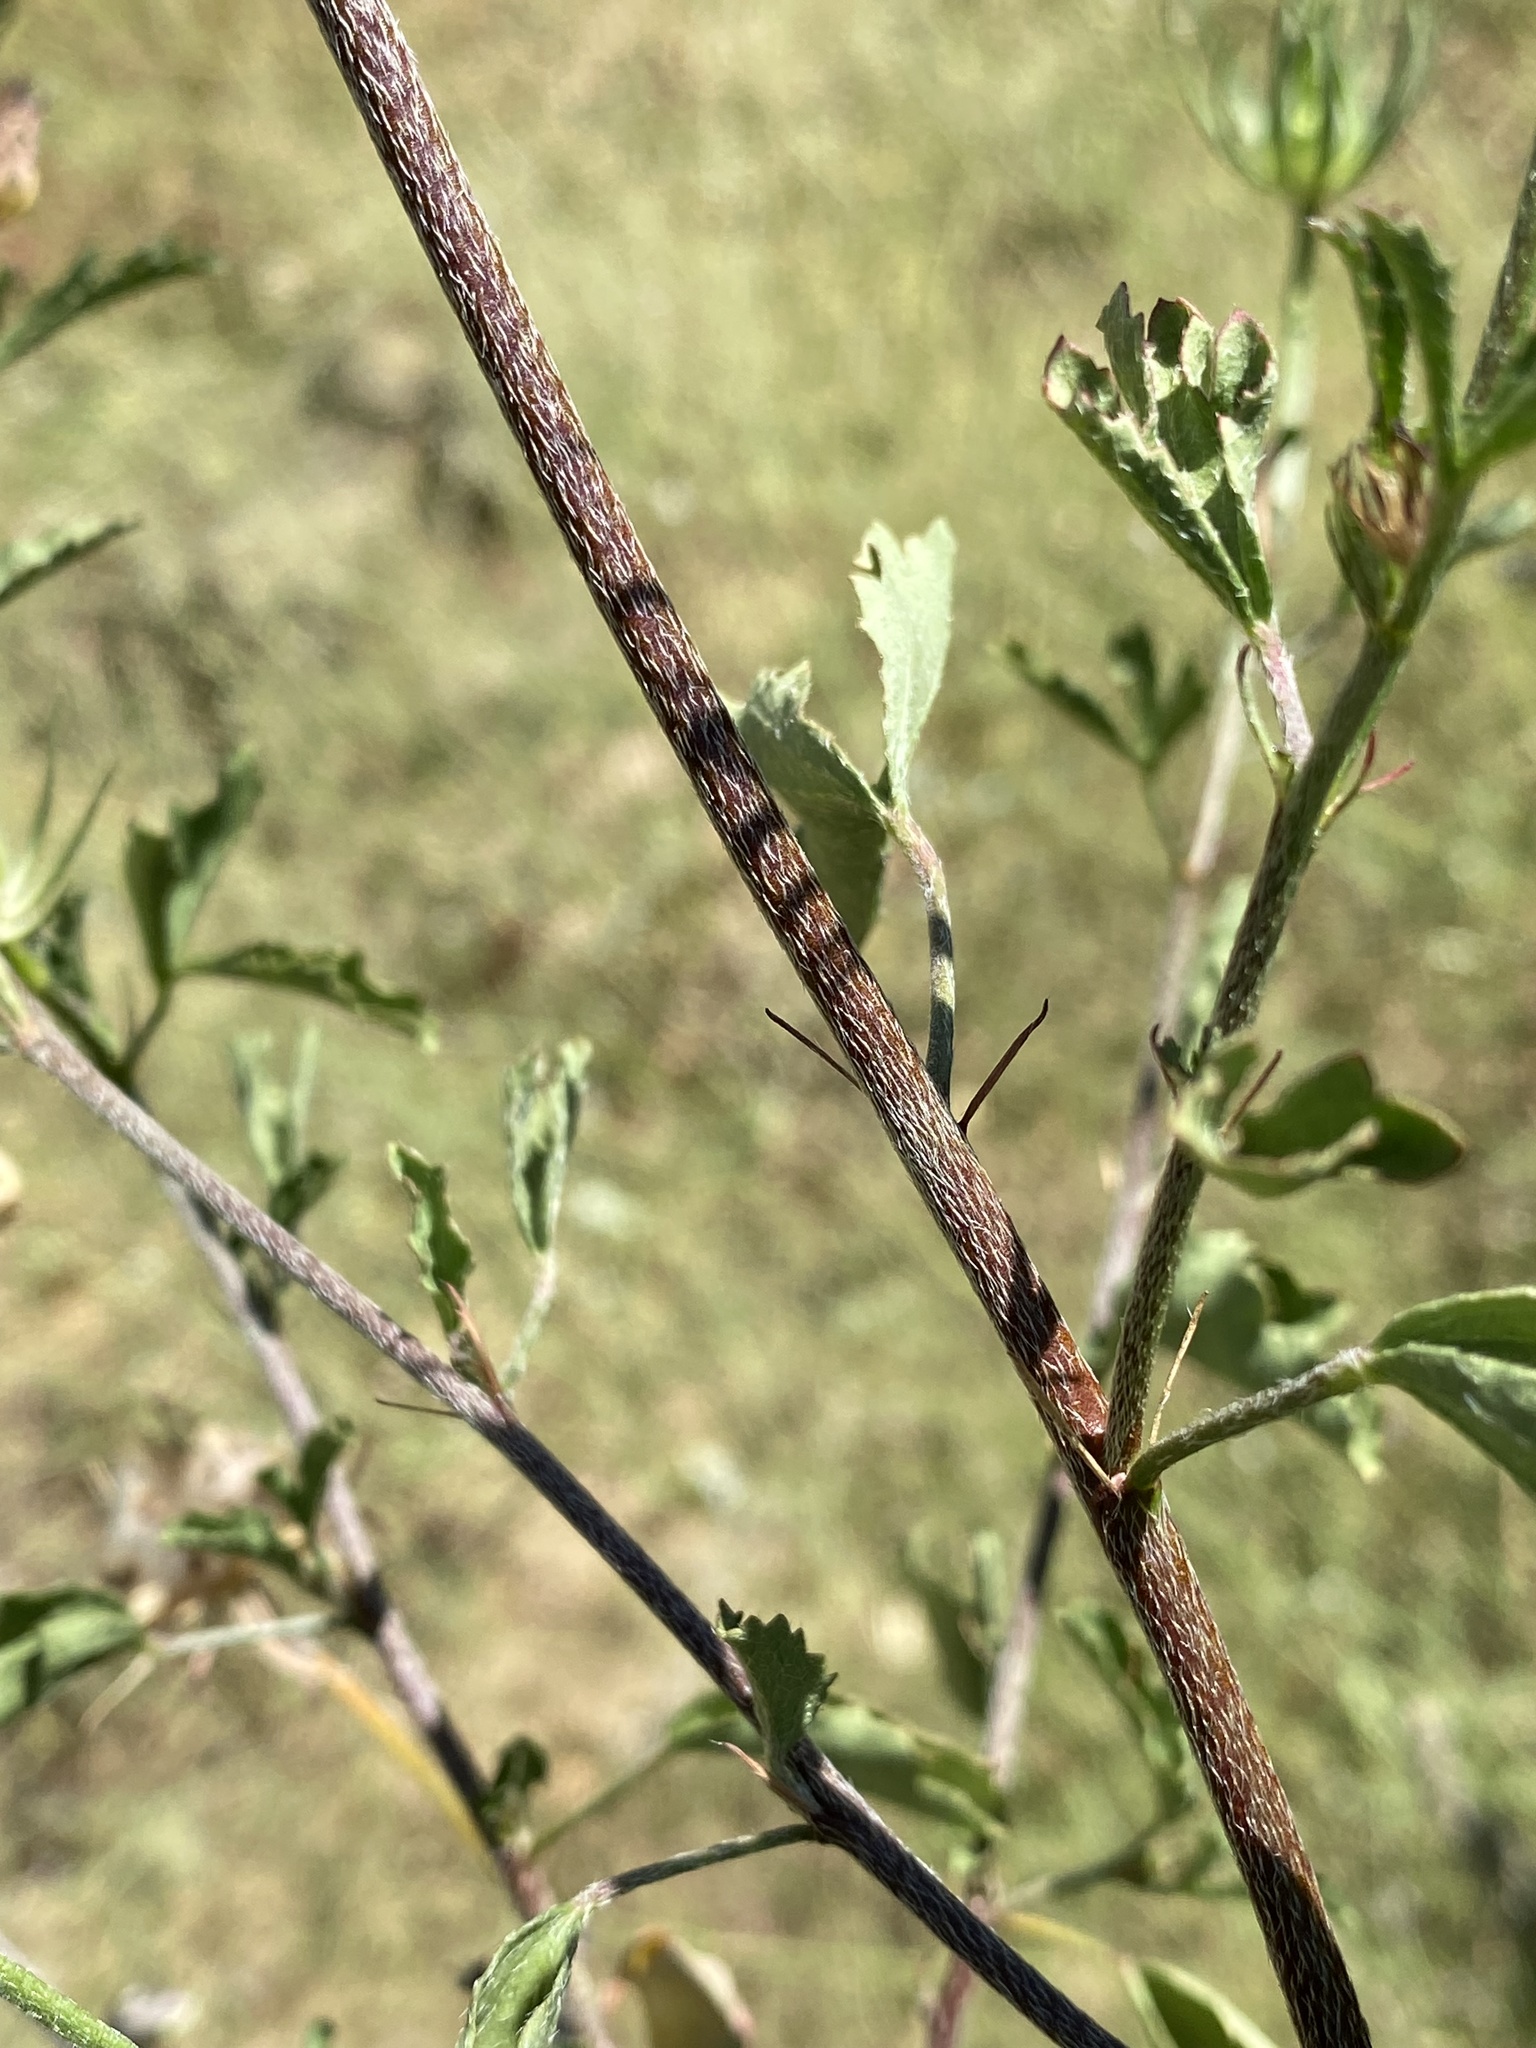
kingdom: Plantae
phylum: Tracheophyta
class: Magnoliopsida
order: Malvales
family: Malvaceae
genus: Hibiscus
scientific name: Hibiscus coulteri
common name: Desert rose-mallow
